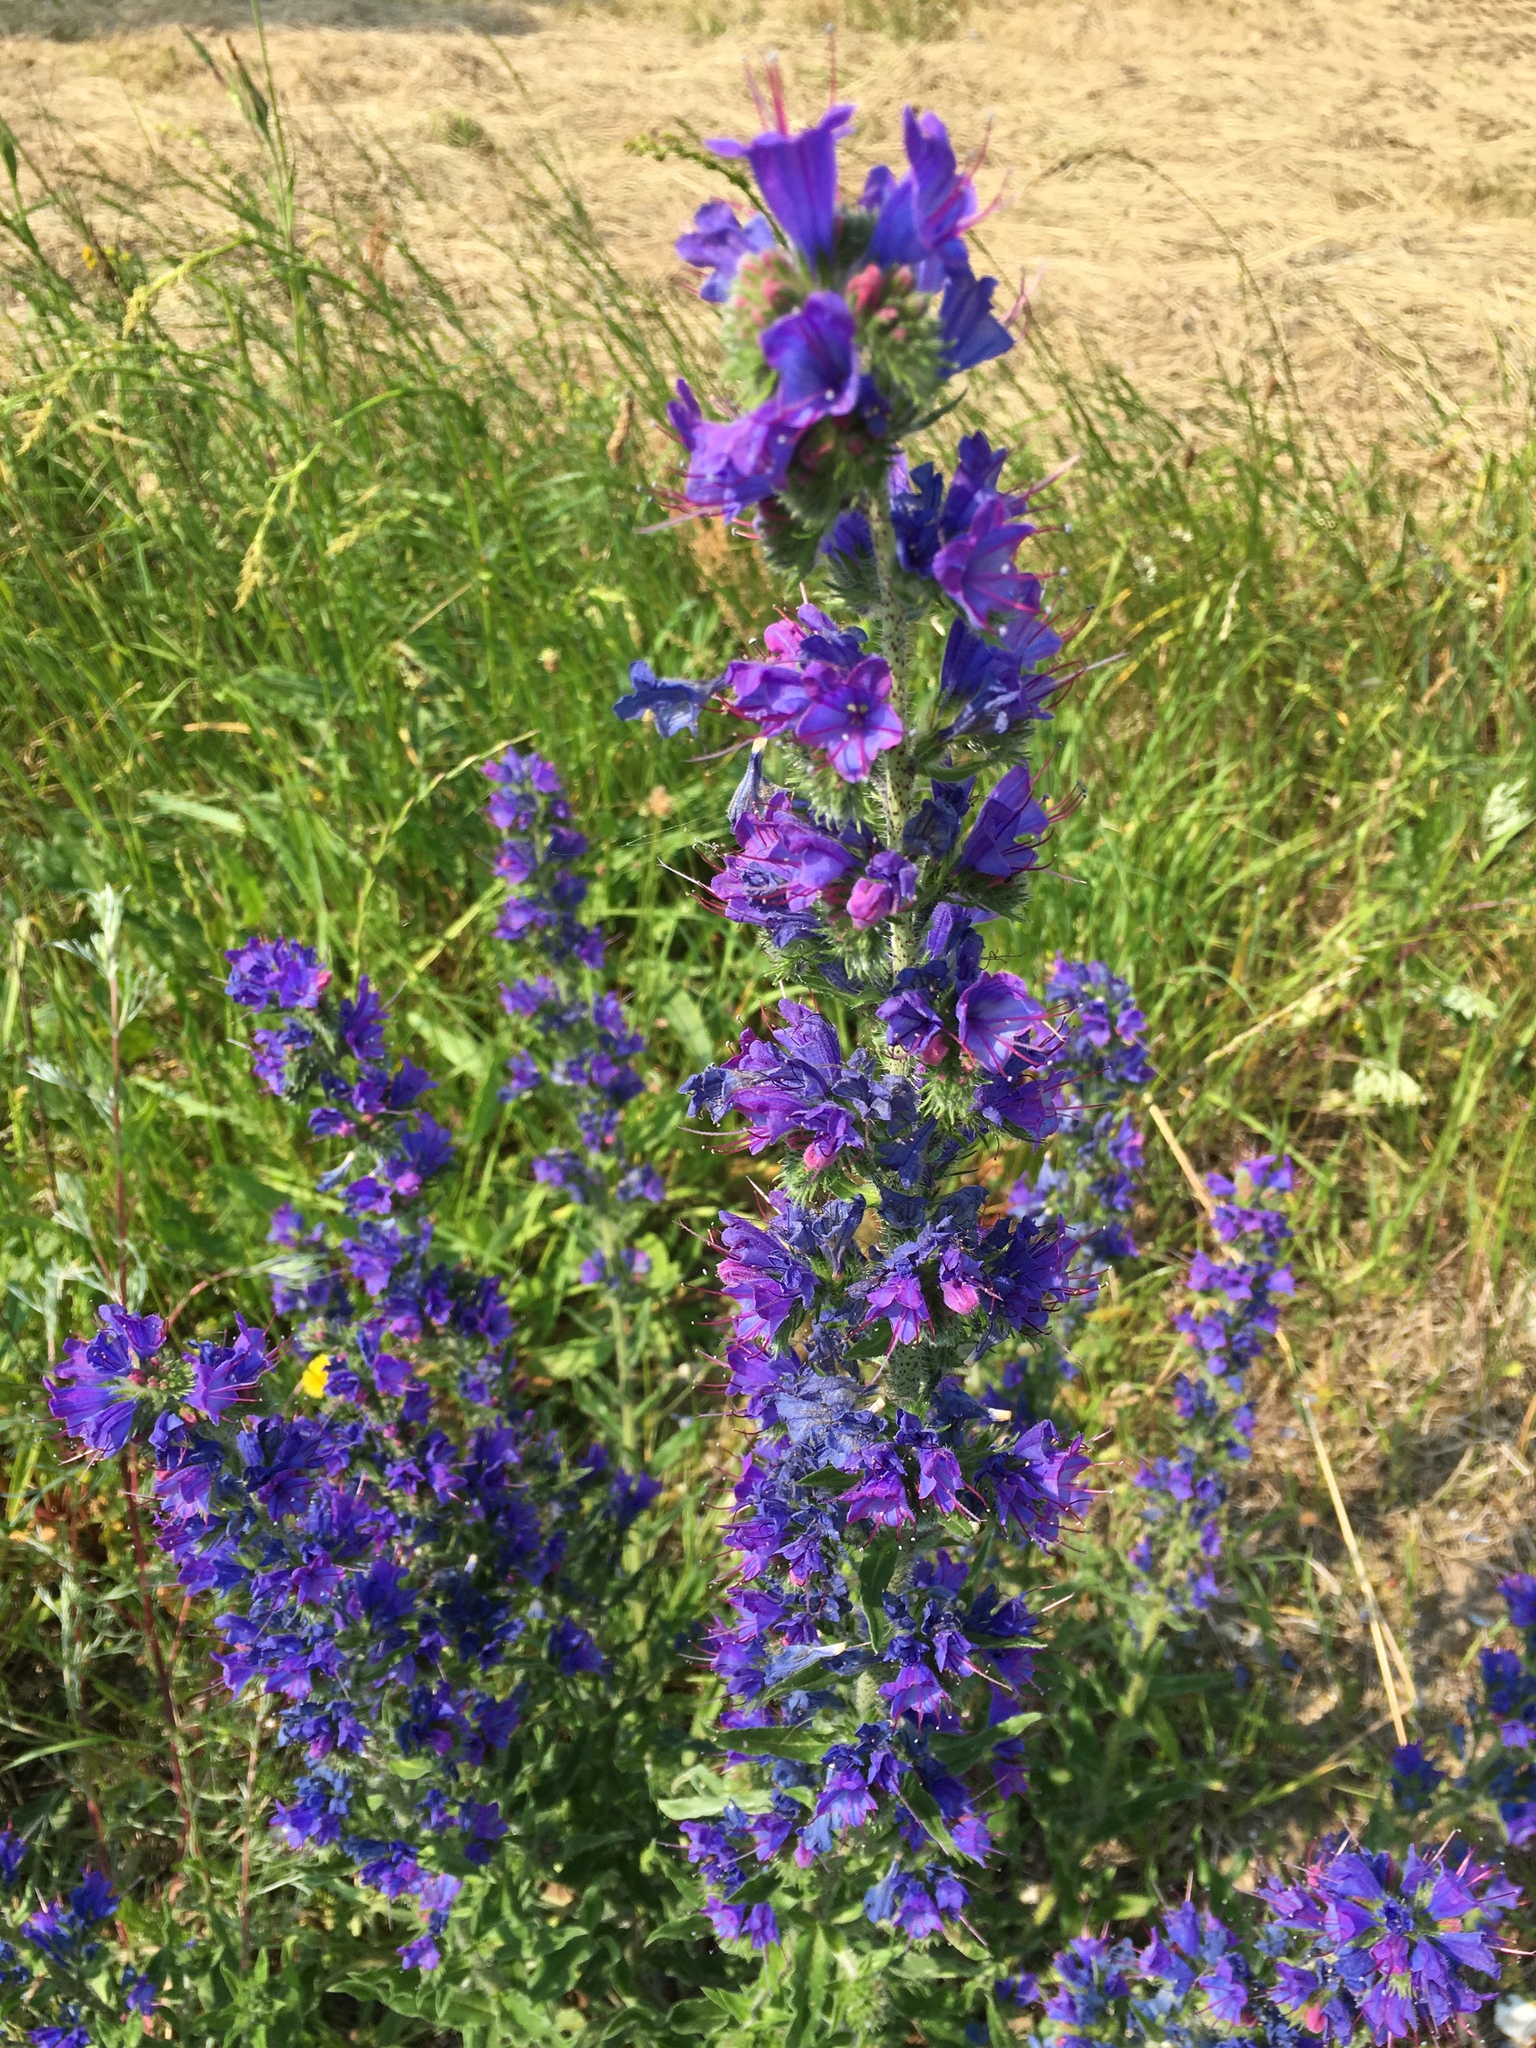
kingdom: Plantae
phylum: Tracheophyta
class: Magnoliopsida
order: Boraginales
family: Boraginaceae
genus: Echium
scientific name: Echium vulgare
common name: Common viper's bugloss
